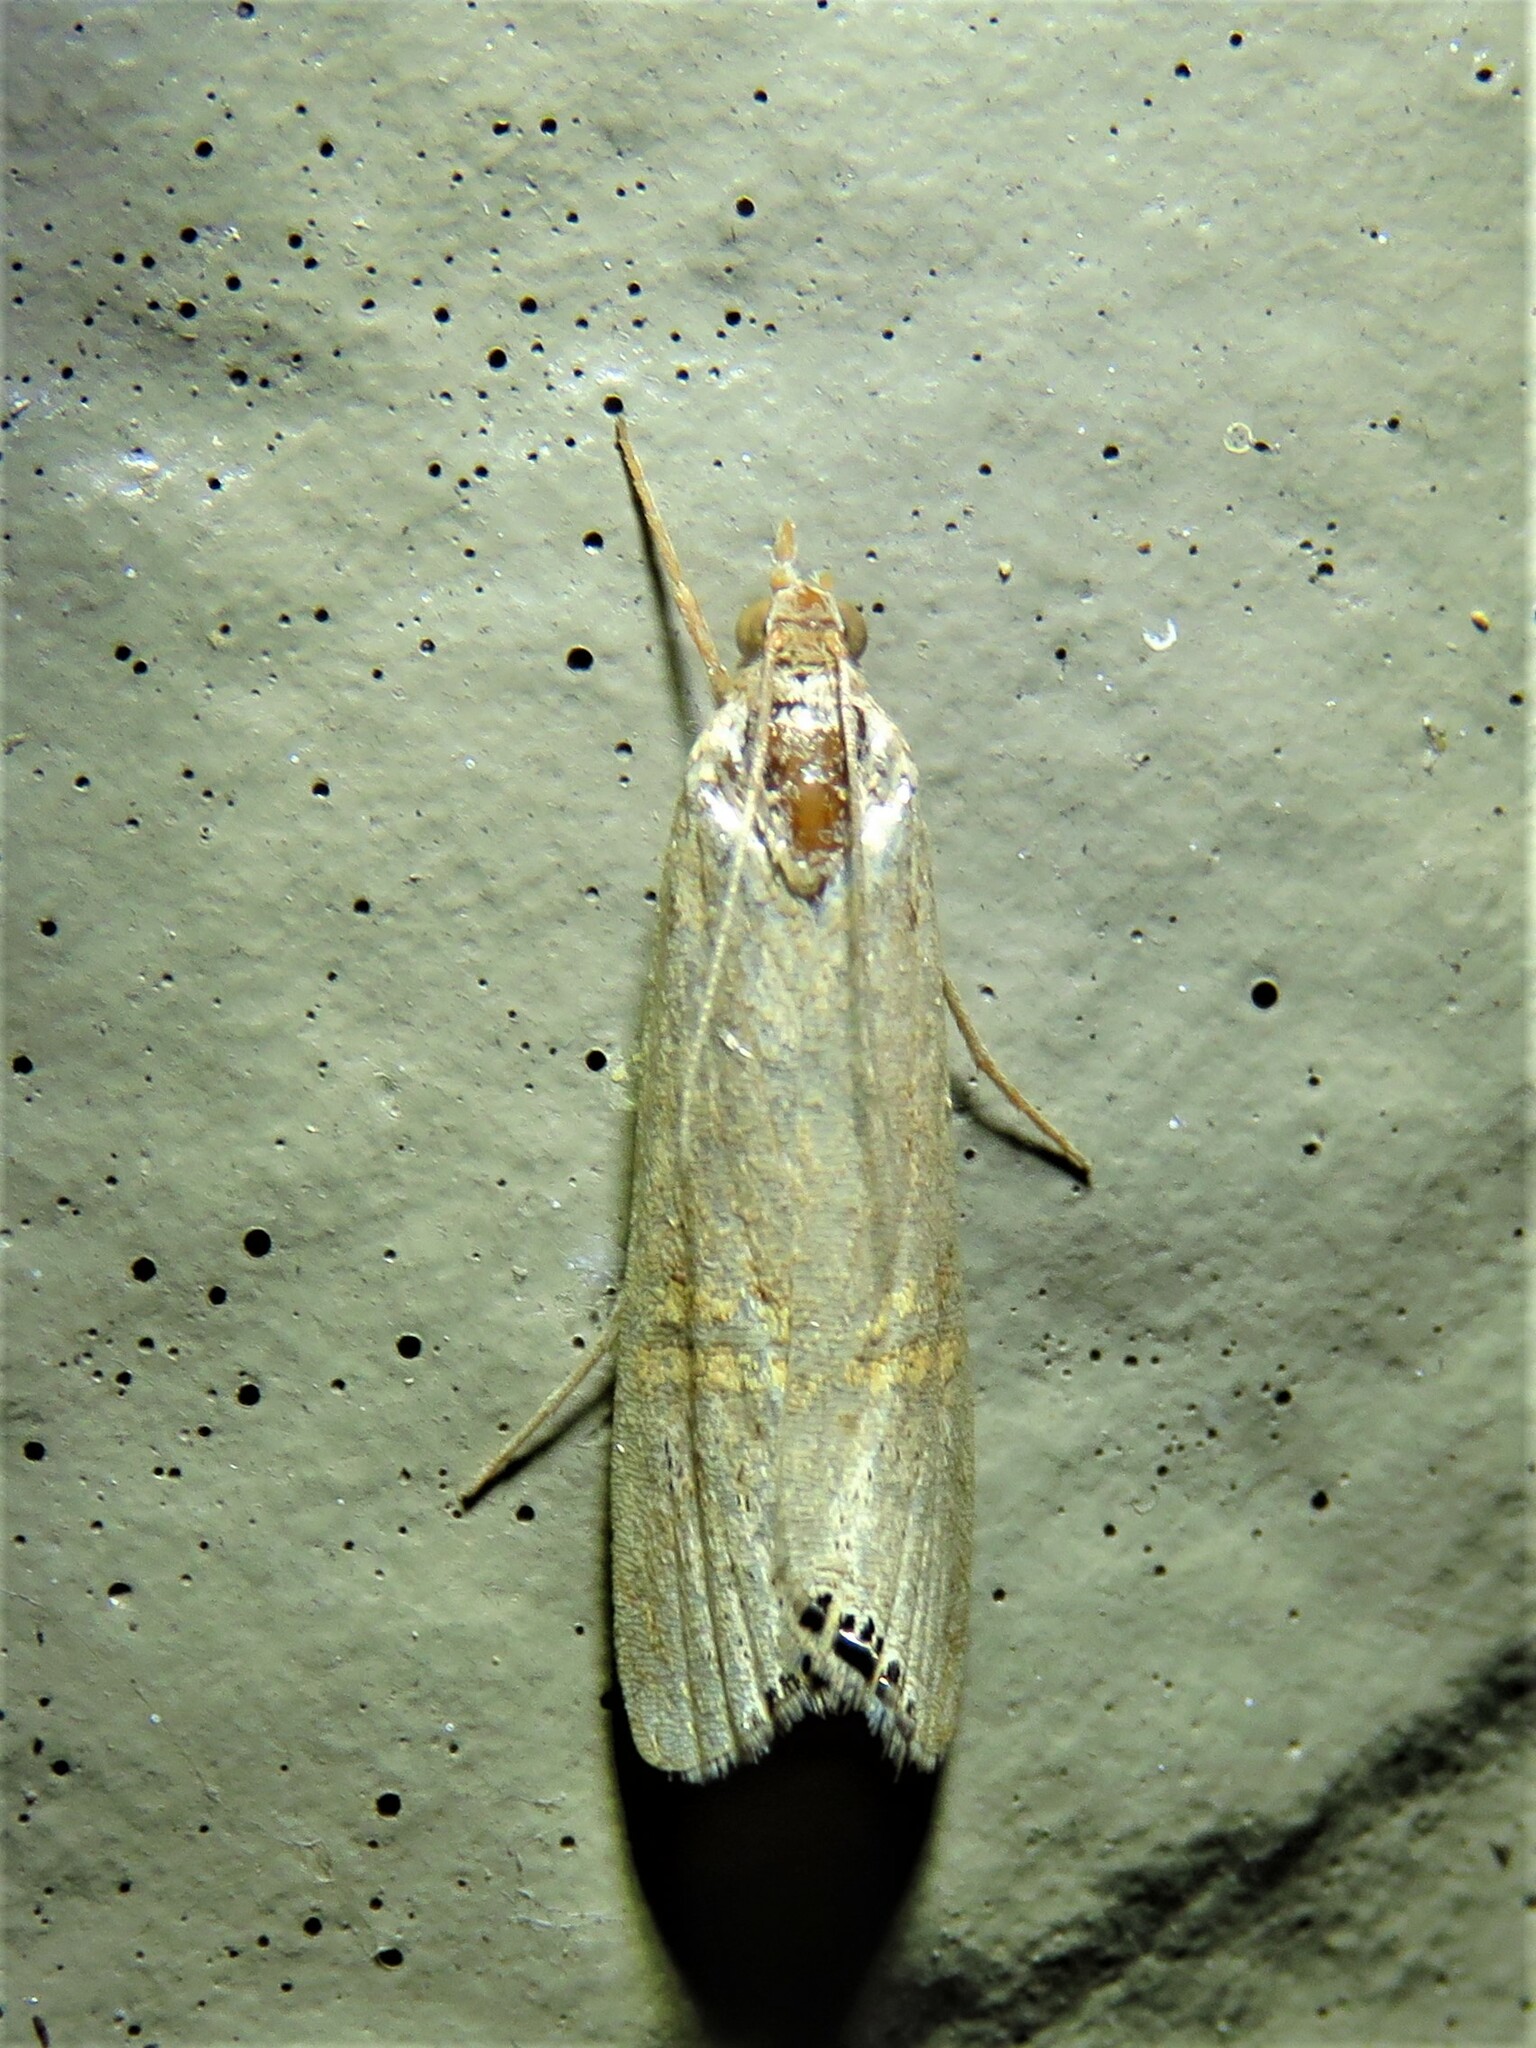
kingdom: Animalia
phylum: Arthropoda
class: Insecta
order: Lepidoptera
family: Crambidae
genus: Euchromius
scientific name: Euchromius ocellea
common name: Necklace veneer moth
